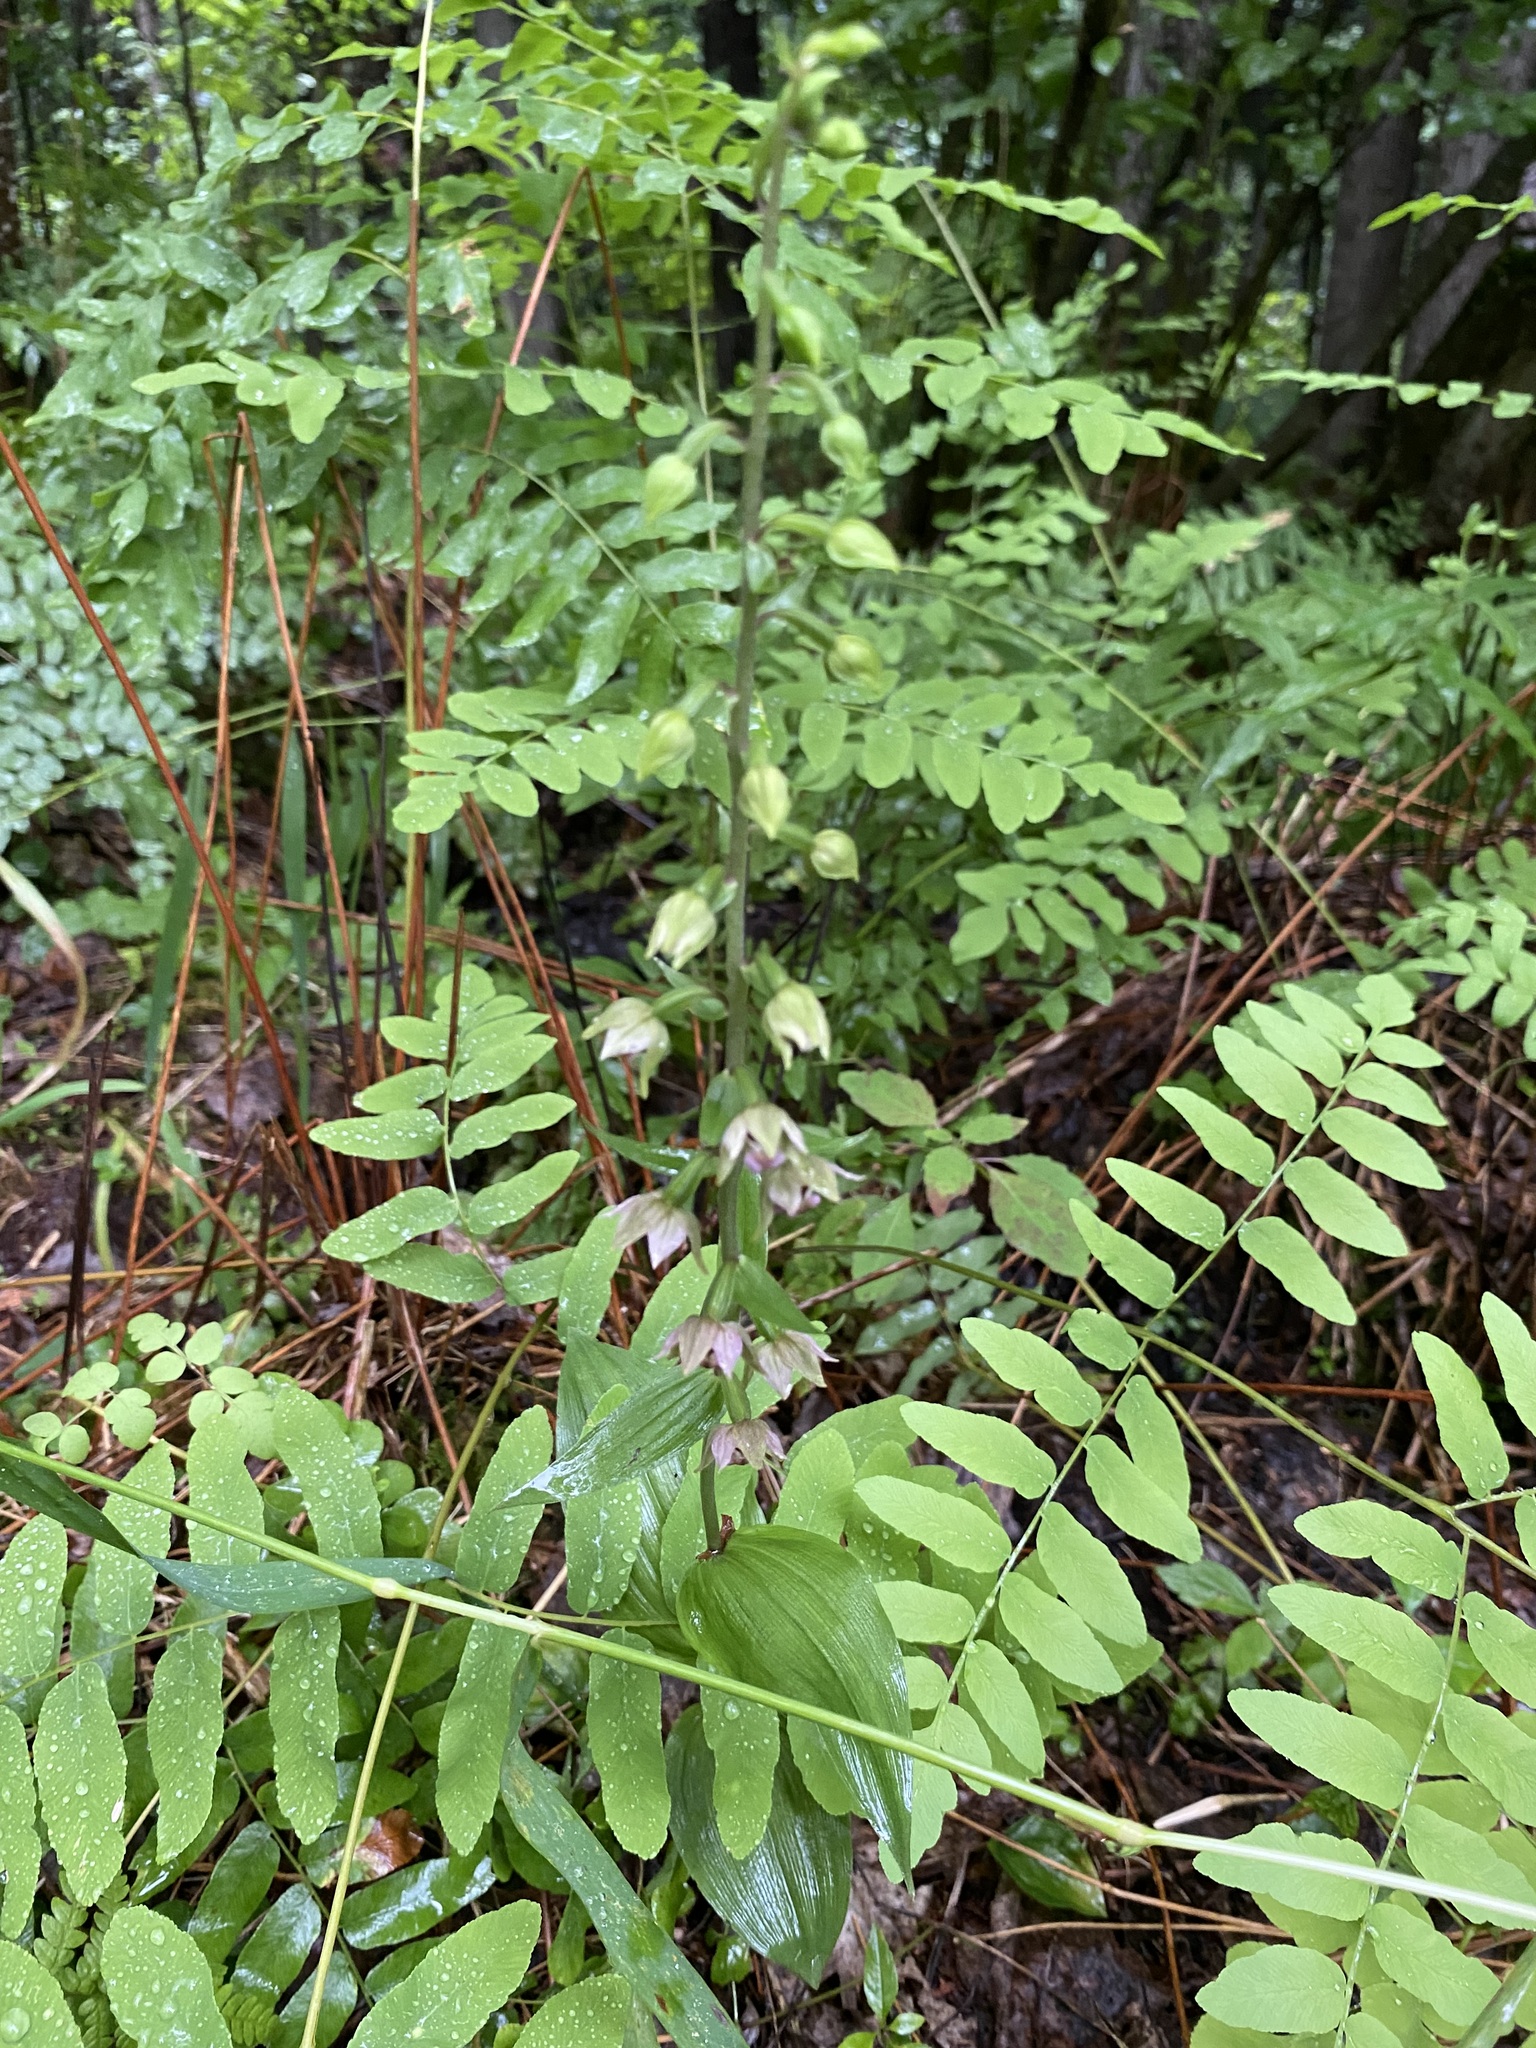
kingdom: Plantae
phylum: Tracheophyta
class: Liliopsida
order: Asparagales
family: Orchidaceae
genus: Epipactis
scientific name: Epipactis helleborine
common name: Broad-leaved helleborine
